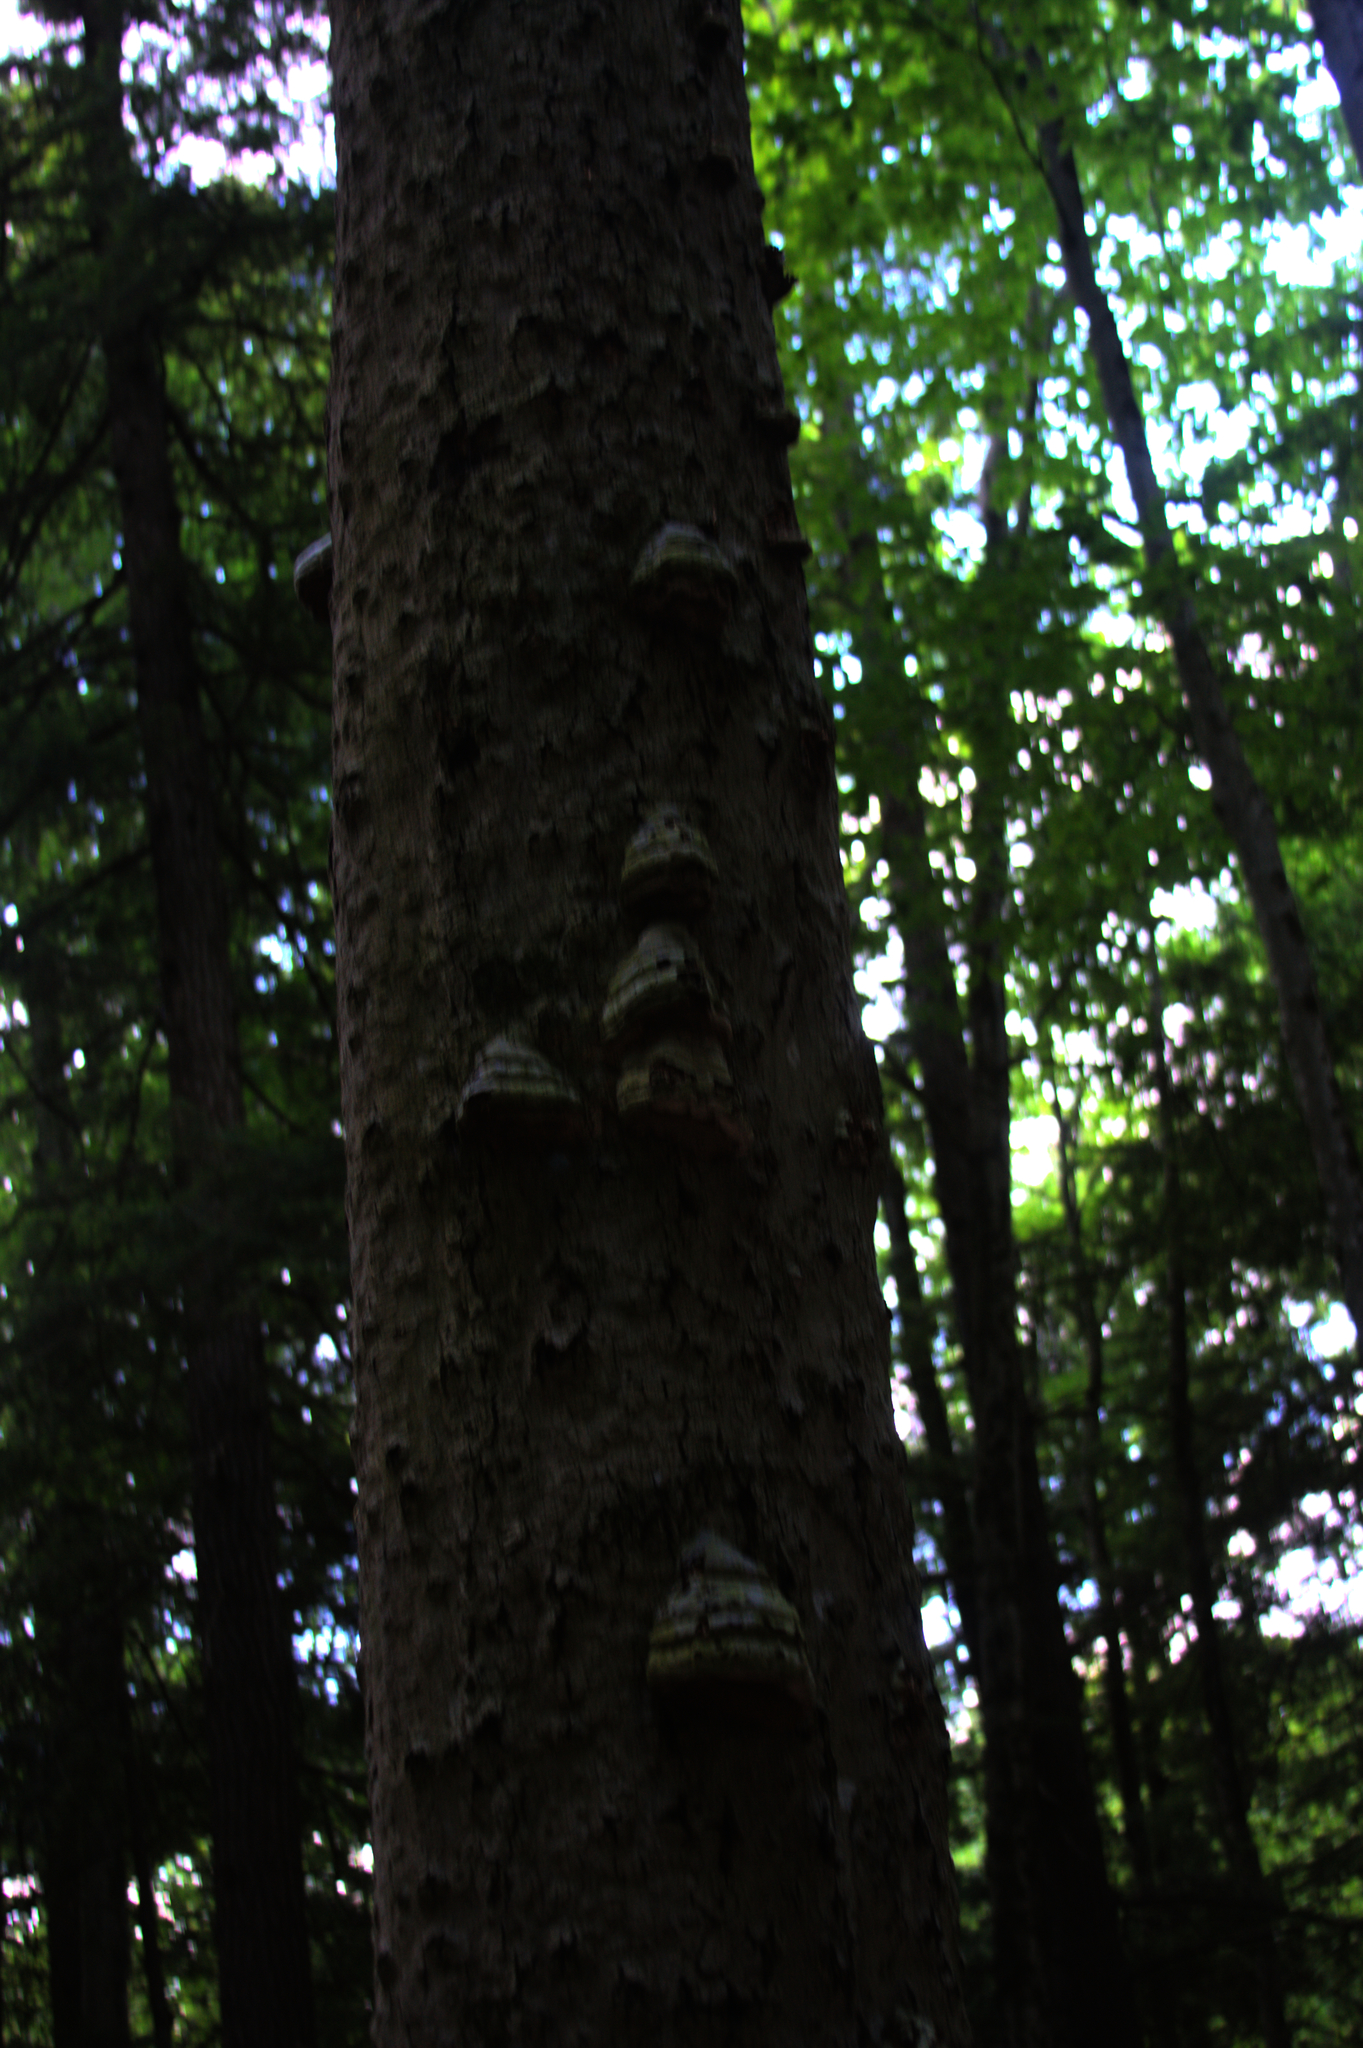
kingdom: Fungi
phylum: Basidiomycota
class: Agaricomycetes
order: Polyporales
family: Polyporaceae
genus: Fomes
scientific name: Fomes fomentarius
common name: Hoof fungus
